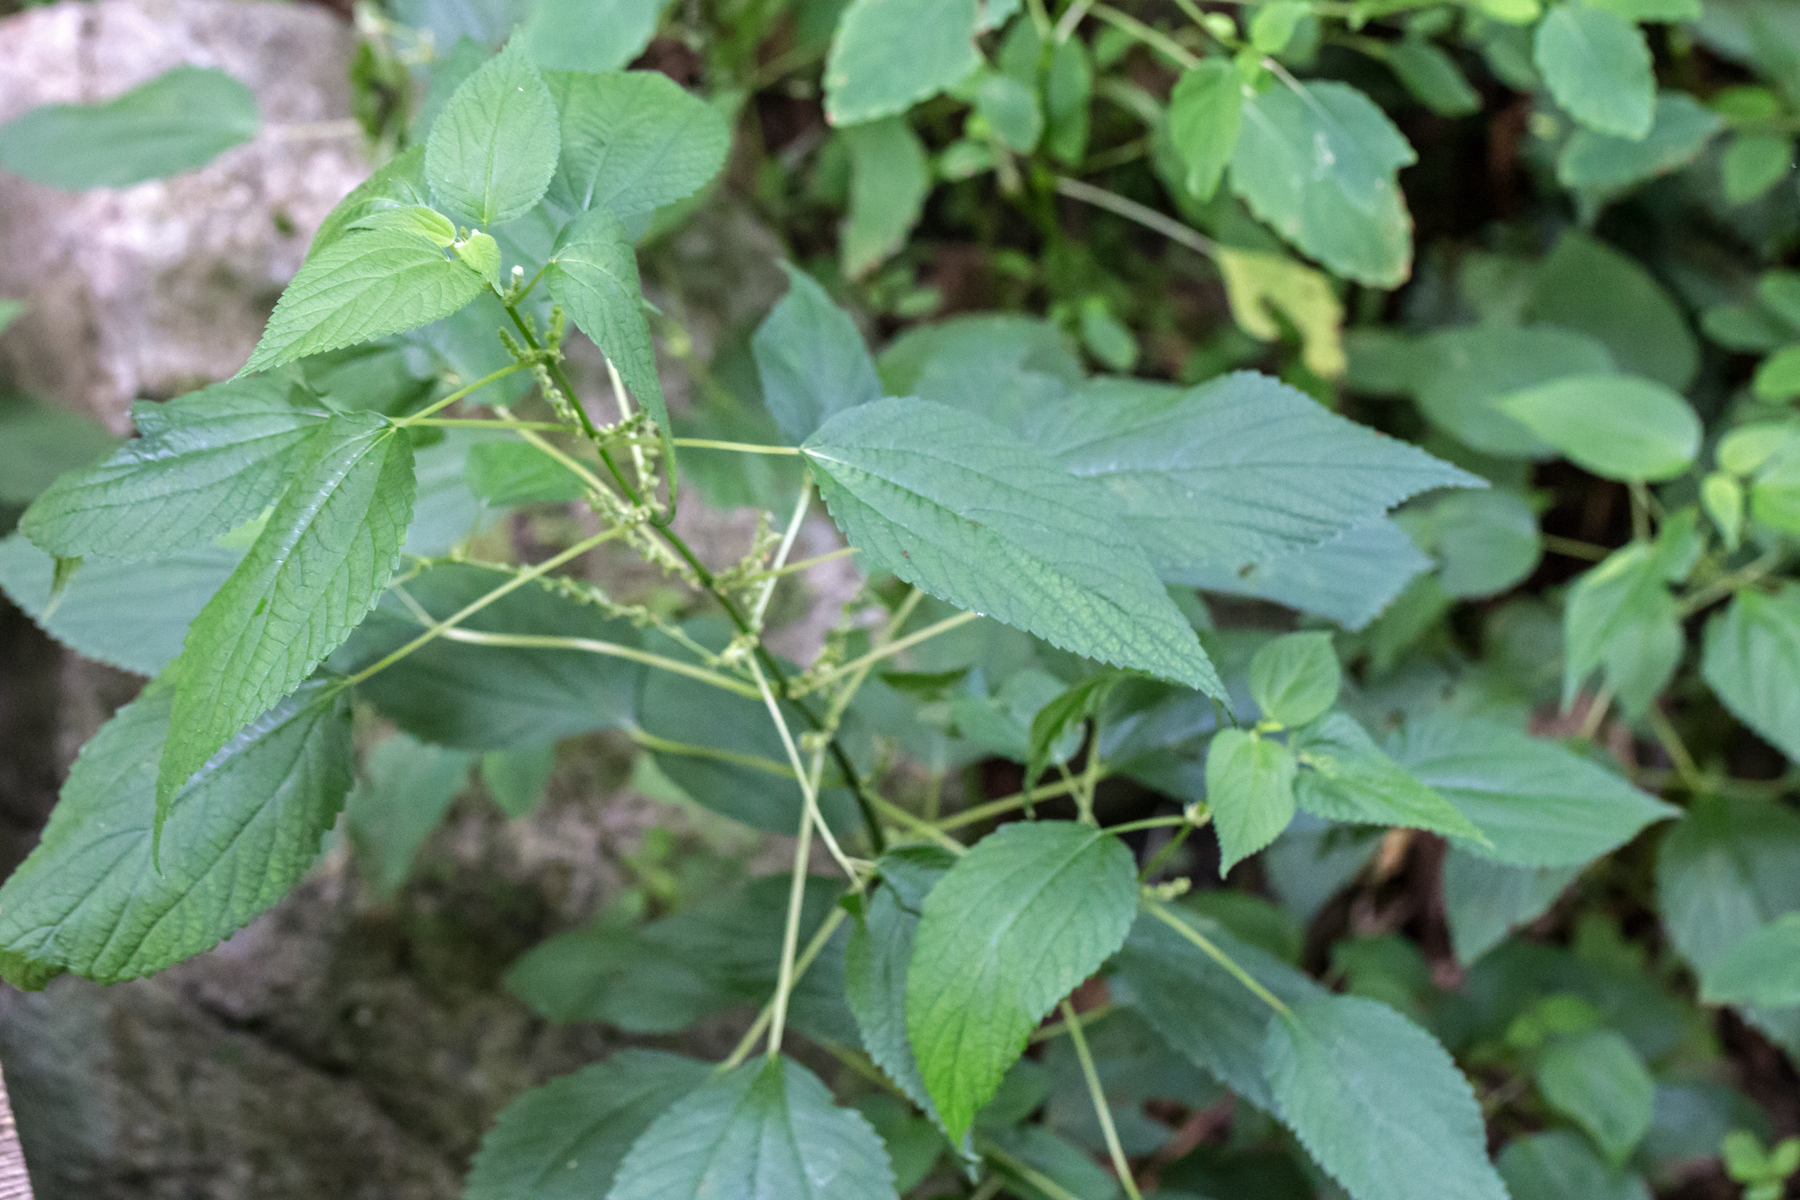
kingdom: Plantae
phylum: Tracheophyta
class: Magnoliopsida
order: Rosales
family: Urticaceae
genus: Boehmeria
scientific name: Boehmeria cylindrica
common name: Bog-hemp
